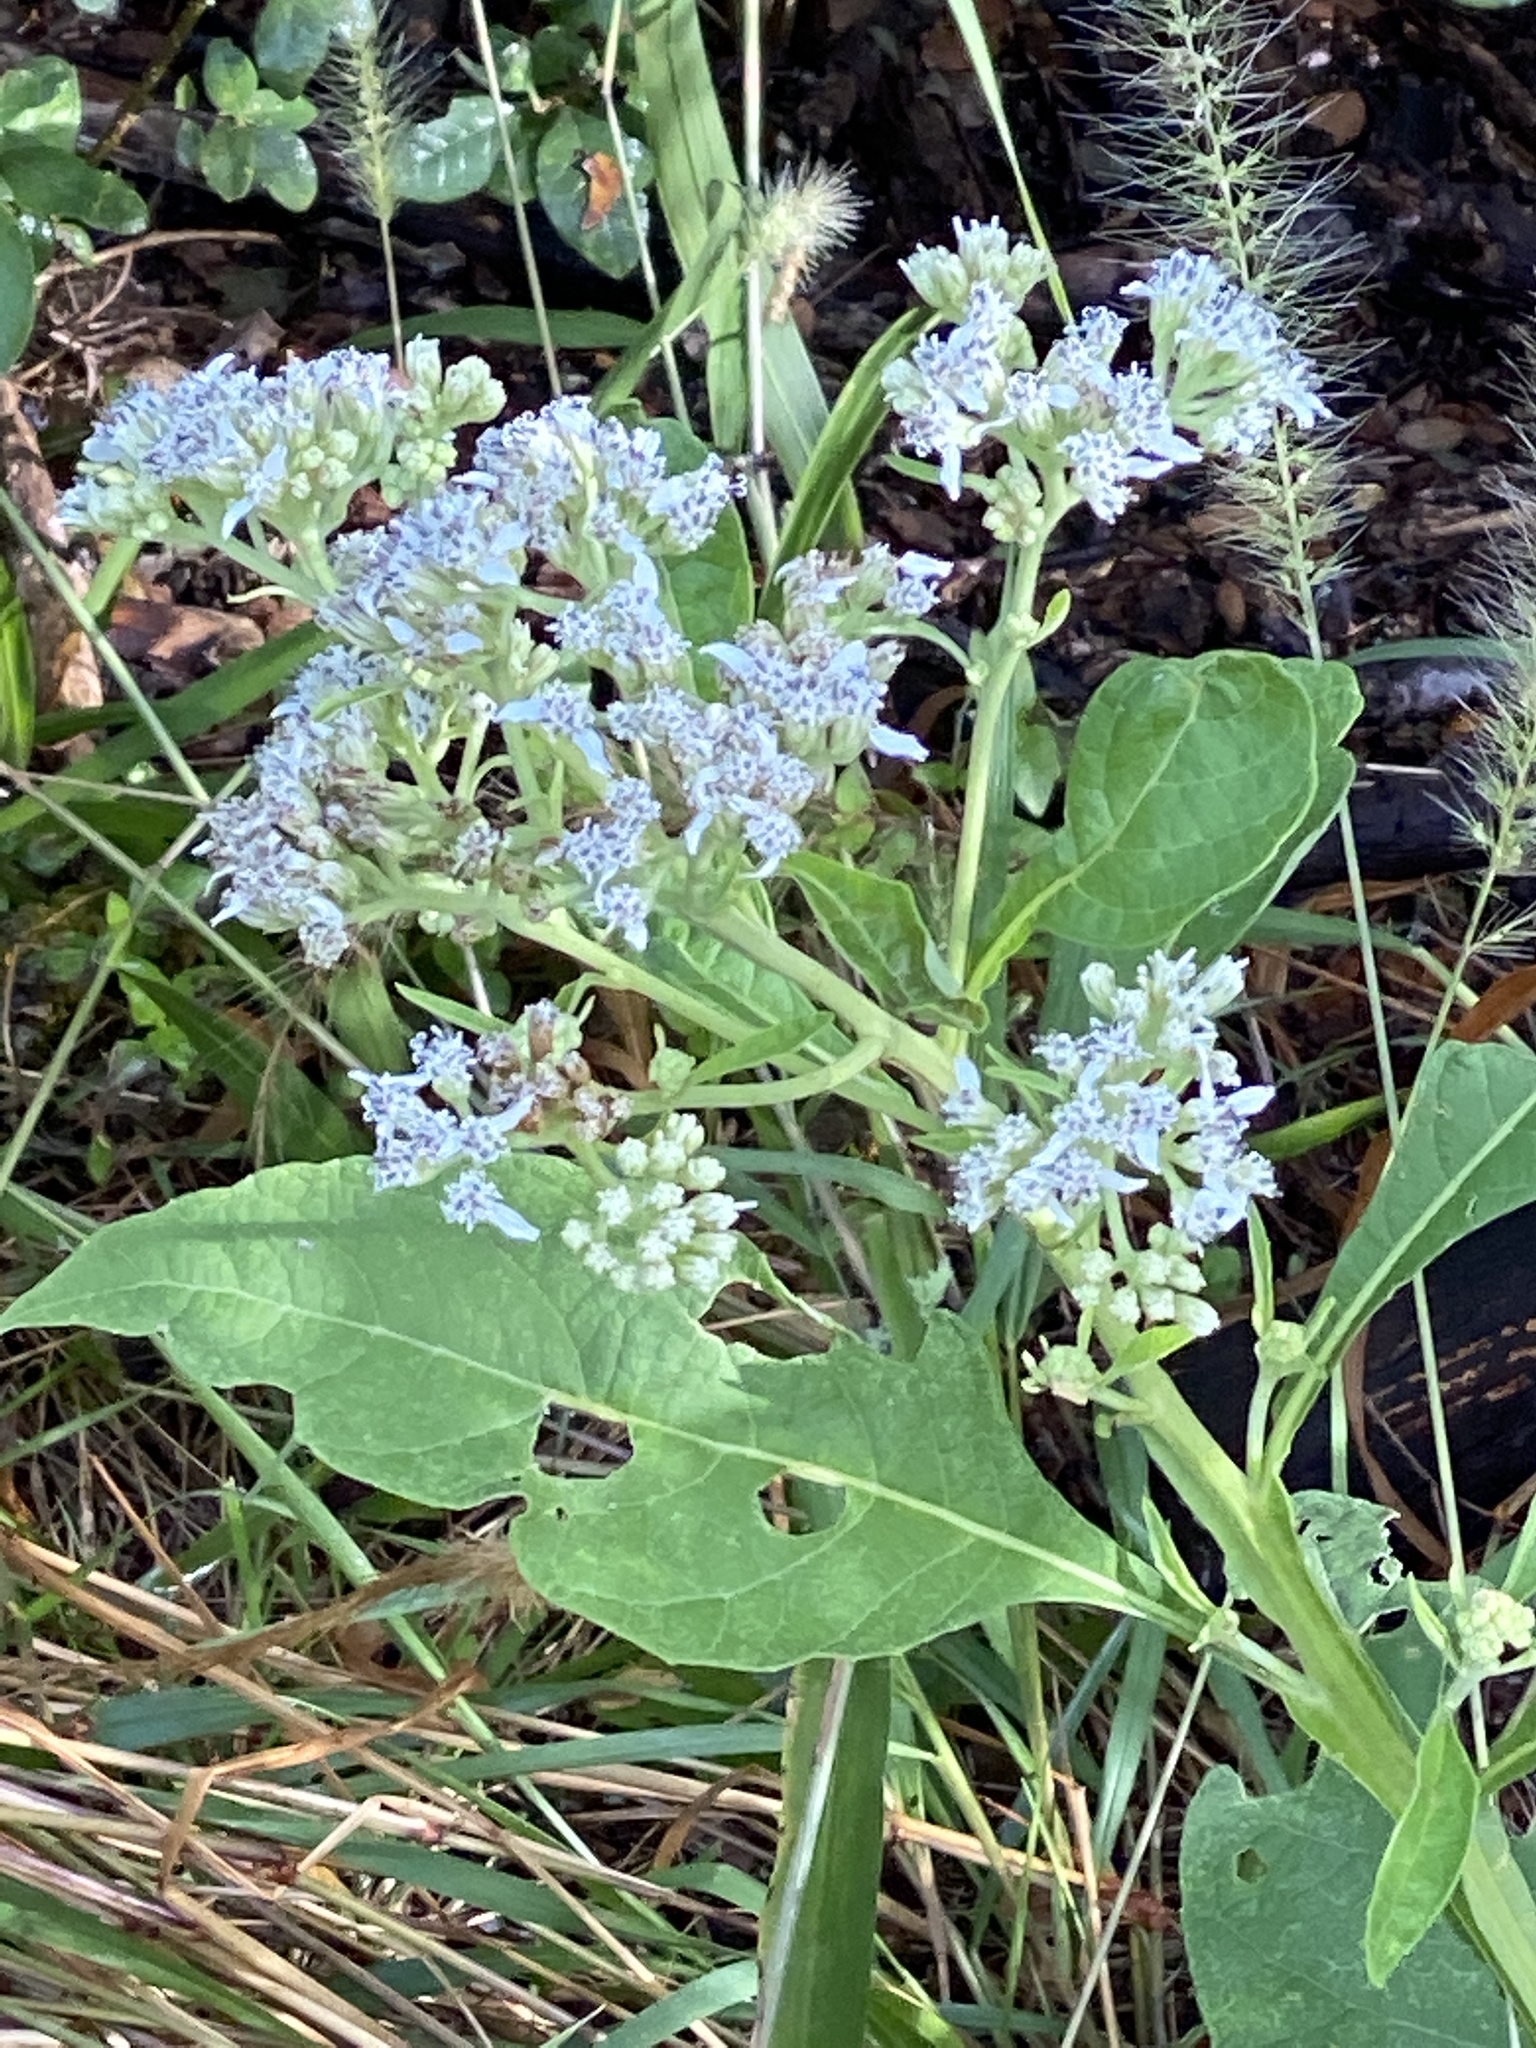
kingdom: Plantae
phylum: Tracheophyta
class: Magnoliopsida
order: Asterales
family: Asteraceae
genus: Verbesina
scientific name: Verbesina virginica
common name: Frostweed
